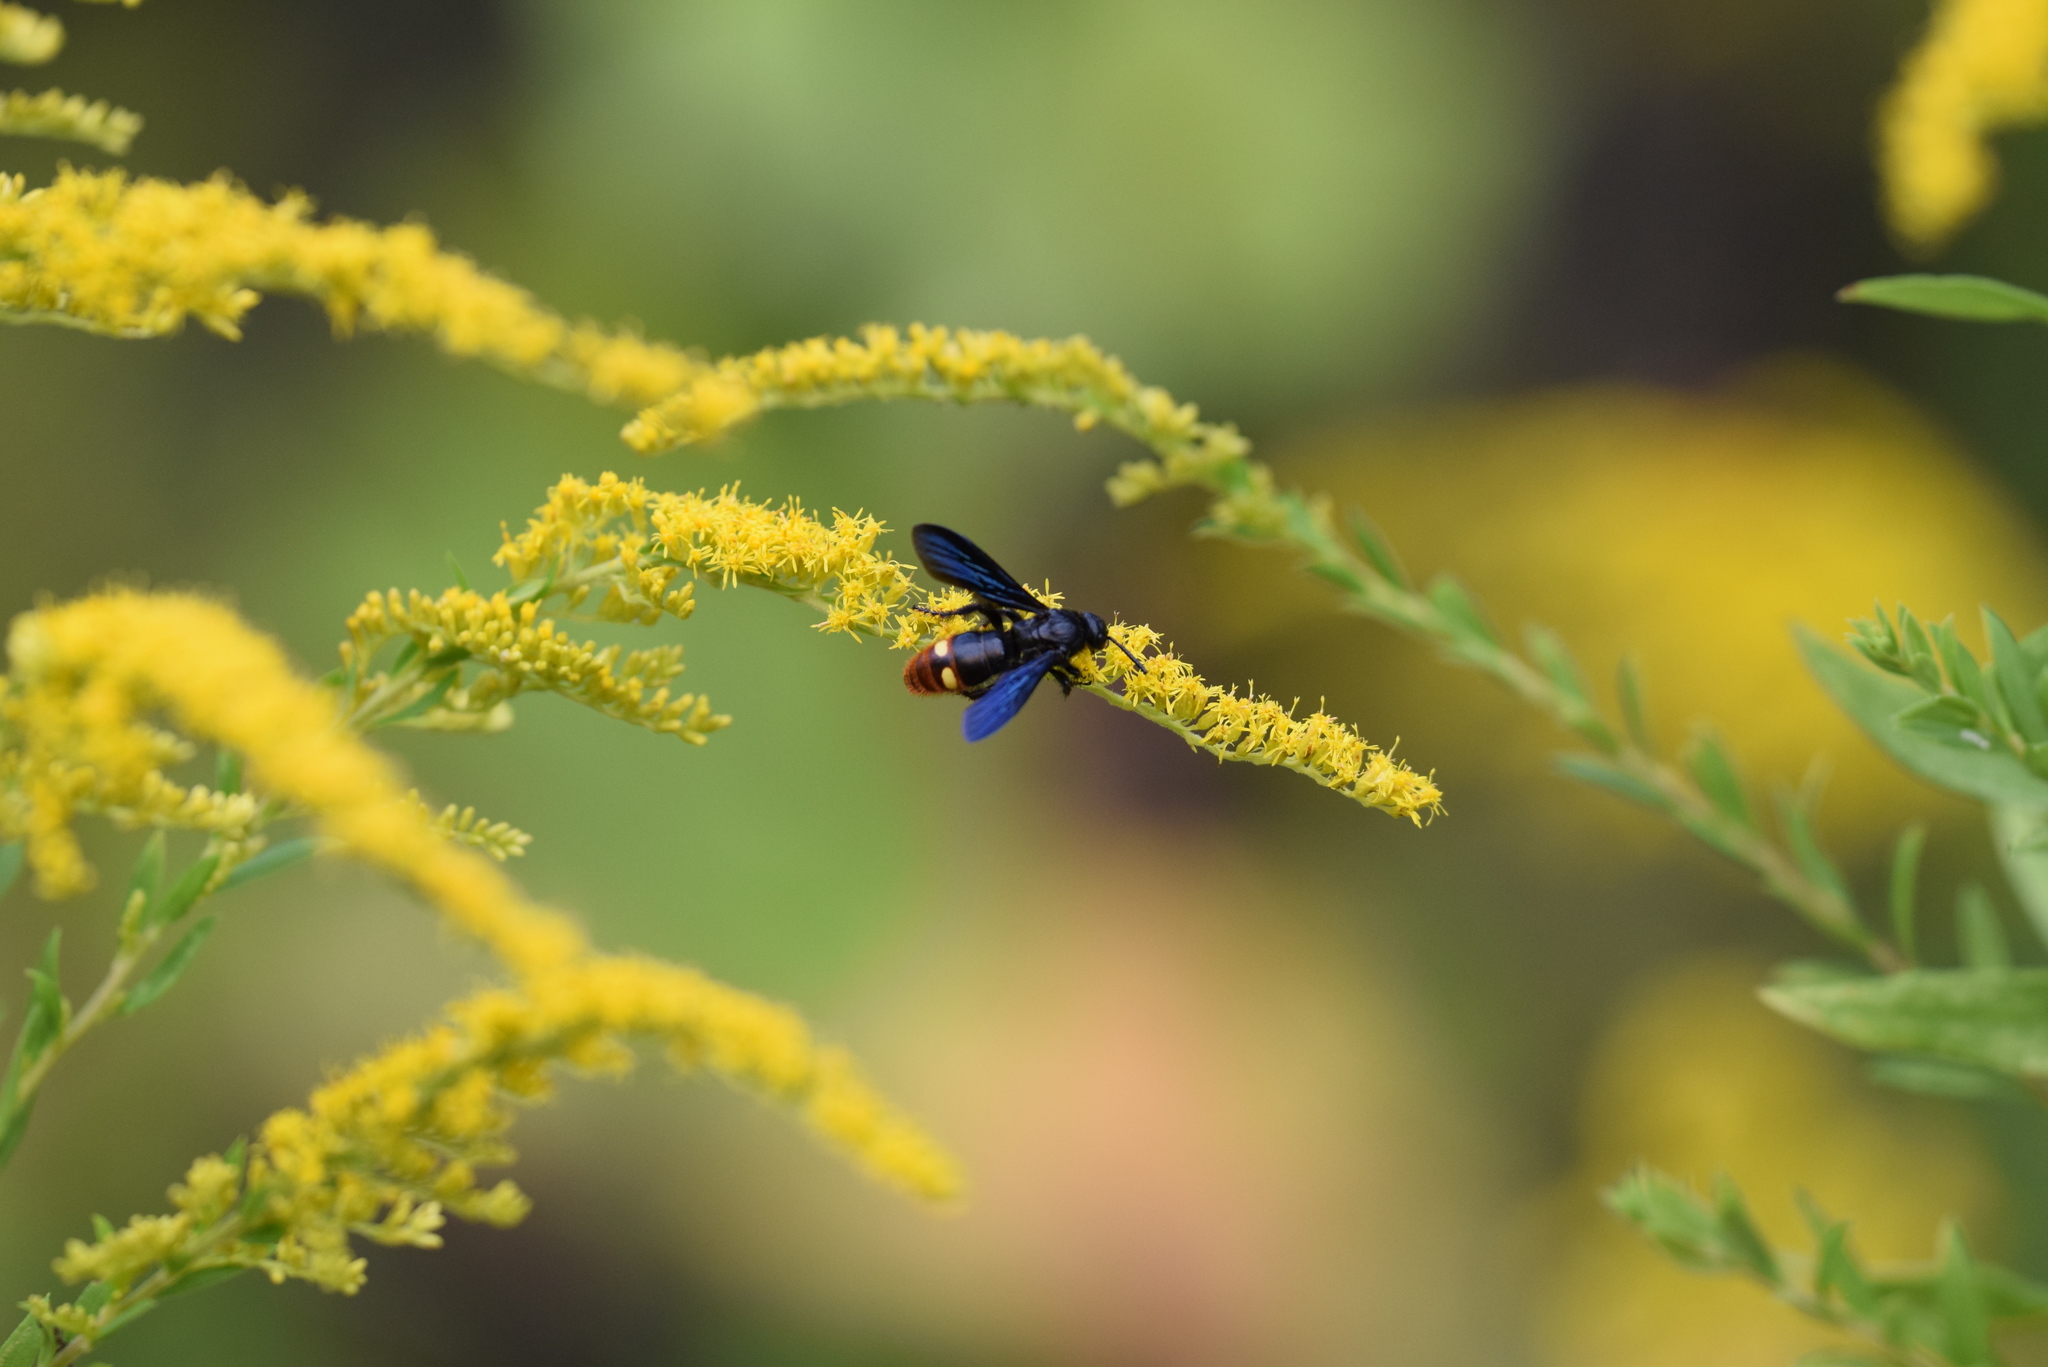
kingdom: Animalia
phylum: Arthropoda
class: Insecta
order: Hymenoptera
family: Scoliidae
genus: Scolia
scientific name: Scolia dubia
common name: Blue-winged scoliid wasp
